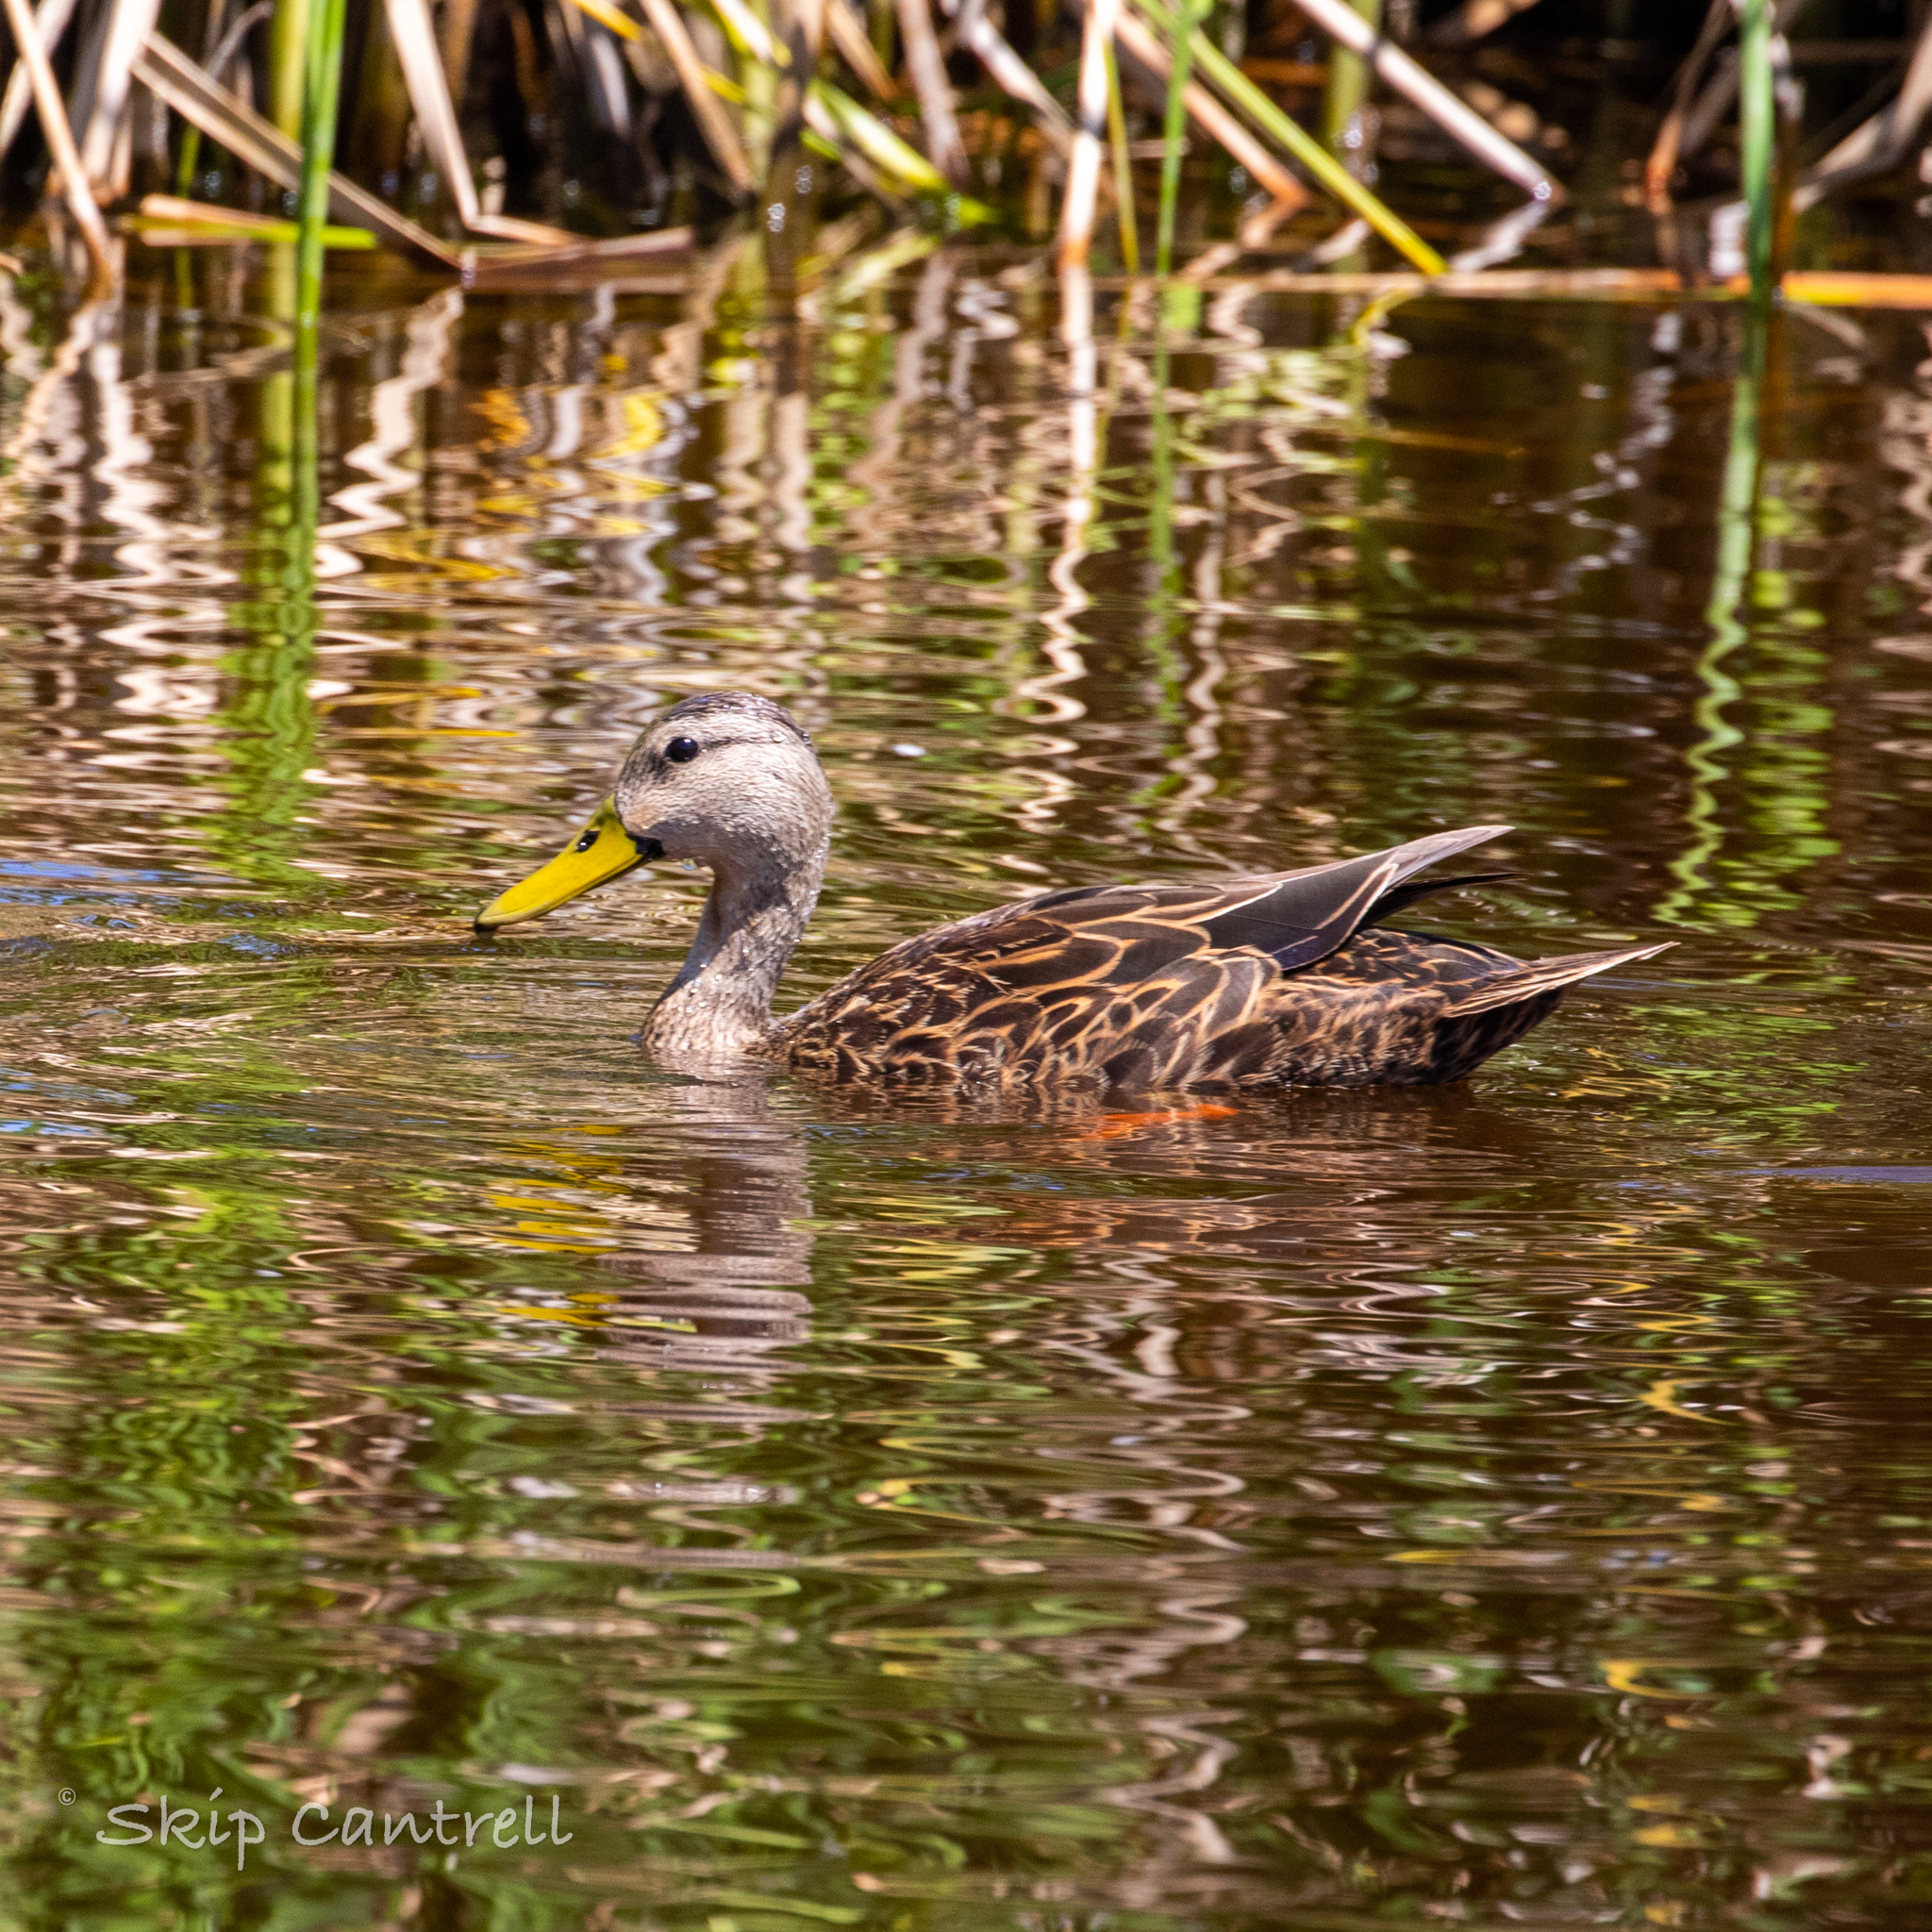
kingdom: Animalia
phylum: Chordata
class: Aves
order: Anseriformes
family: Anatidae
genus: Anas
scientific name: Anas fulvigula
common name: Mottled duck
